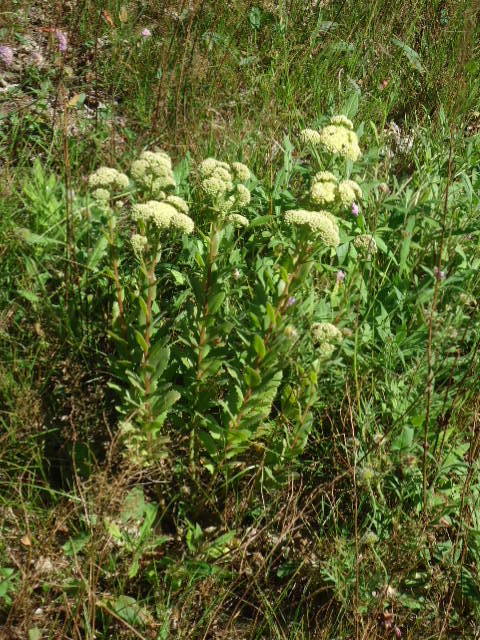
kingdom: Plantae
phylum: Tracheophyta
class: Magnoliopsida
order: Saxifragales
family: Crassulaceae
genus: Hylotelephium
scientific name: Hylotelephium telephium
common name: Live-forever
